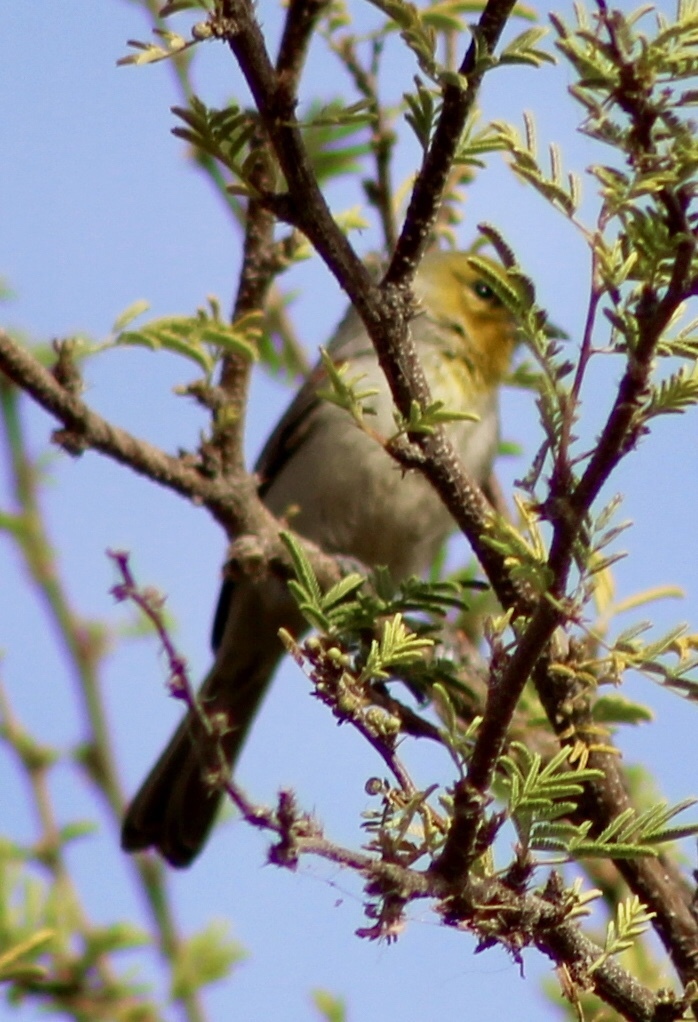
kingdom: Animalia
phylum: Chordata
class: Aves
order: Passeriformes
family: Remizidae
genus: Auriparus
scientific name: Auriparus flaviceps
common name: Verdin
